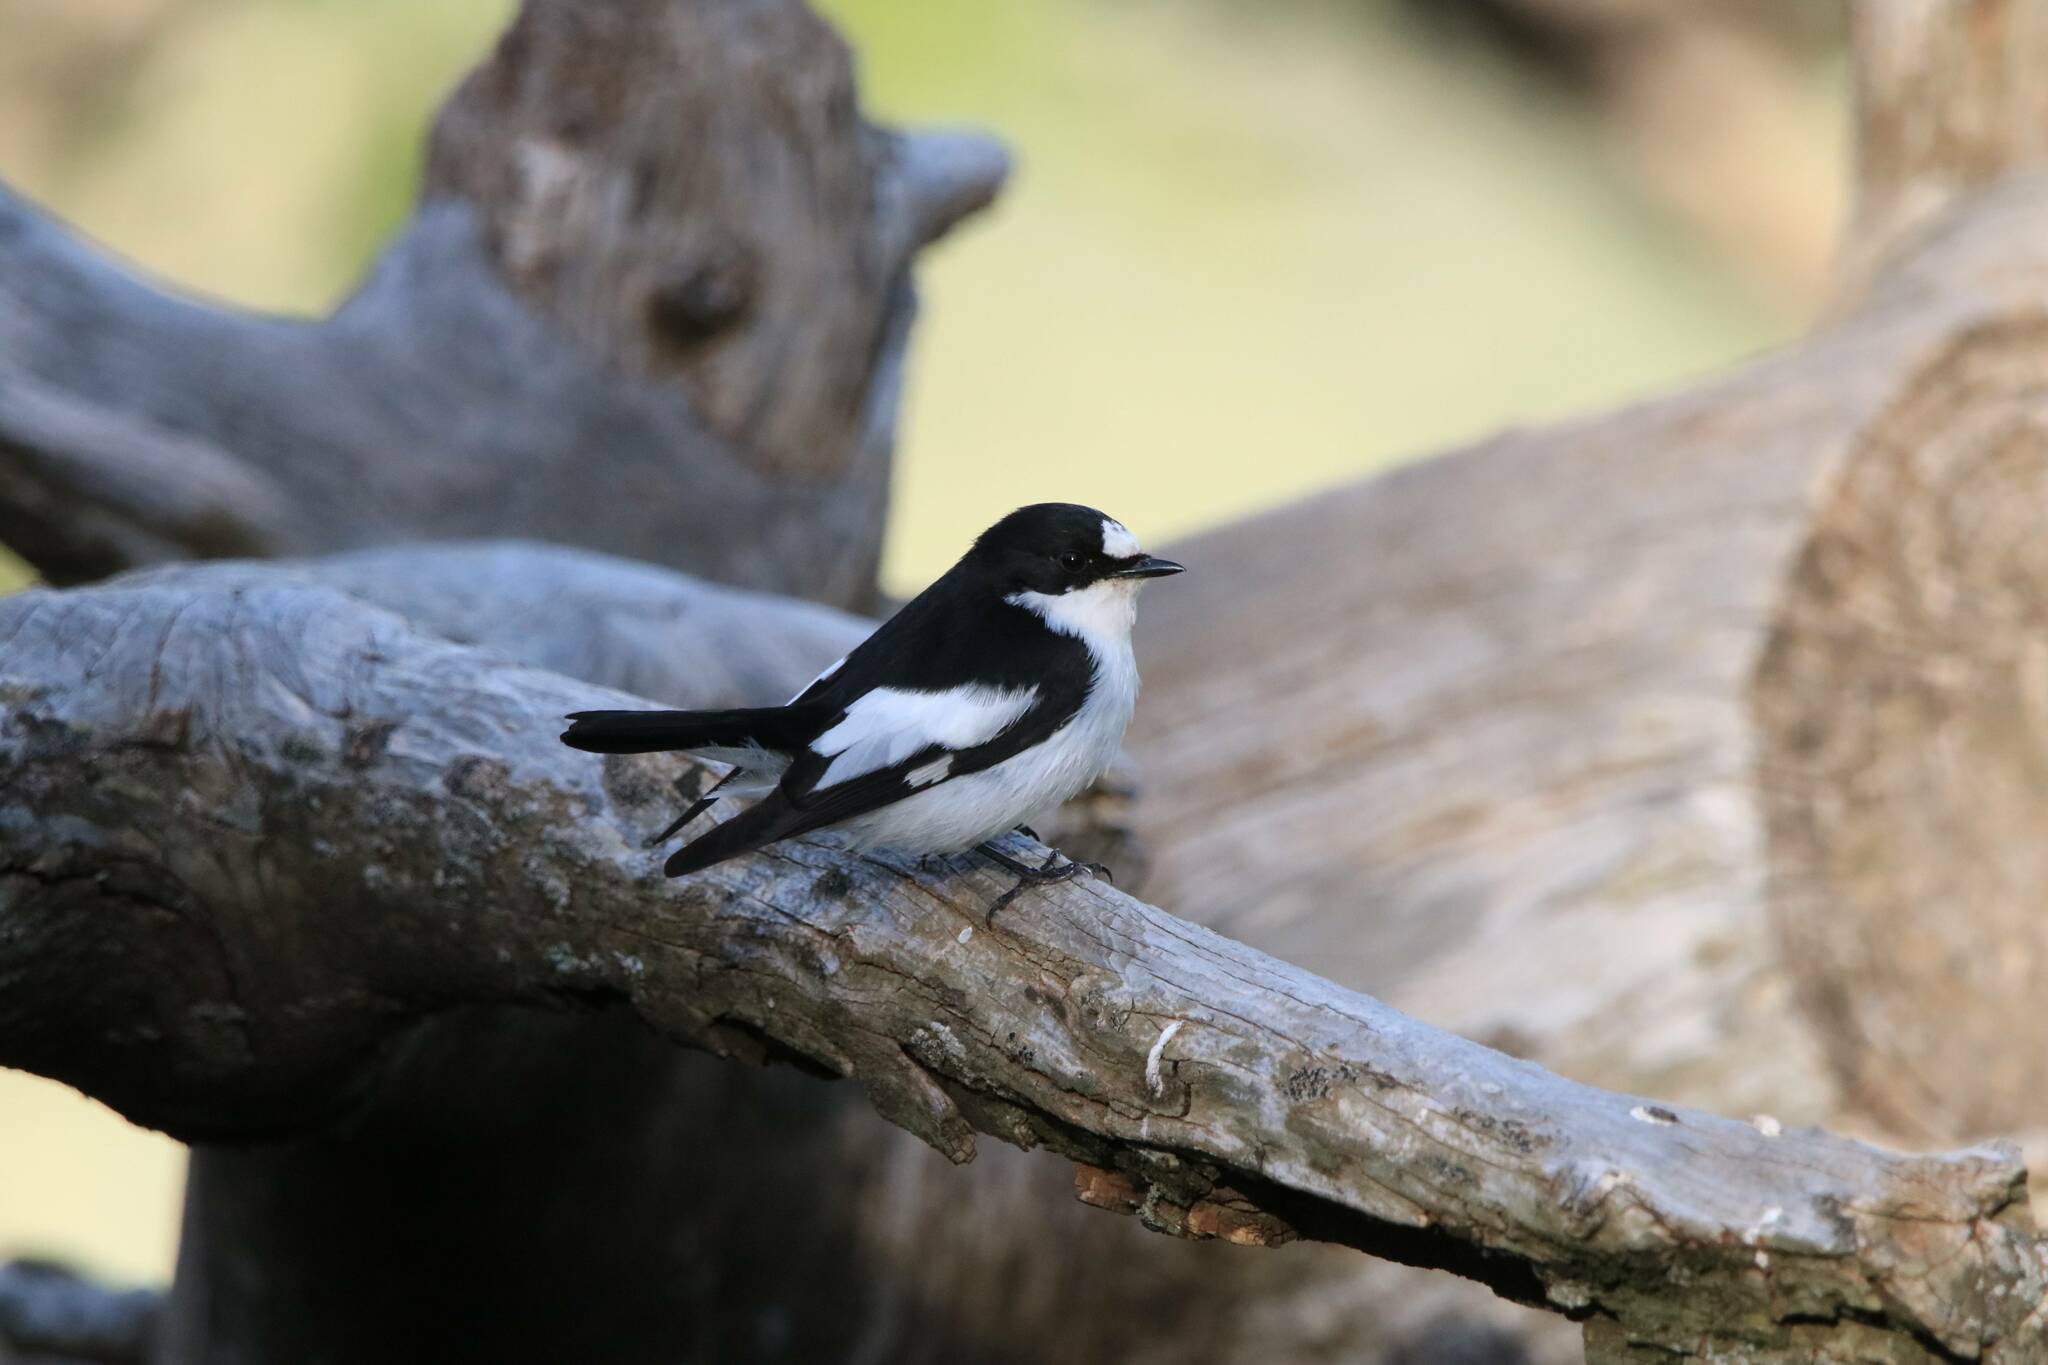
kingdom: Animalia
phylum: Chordata
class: Aves
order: Passeriformes
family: Muscicapidae
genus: Ficedula
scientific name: Ficedula speculigera
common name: Atlas pied flycatcher
